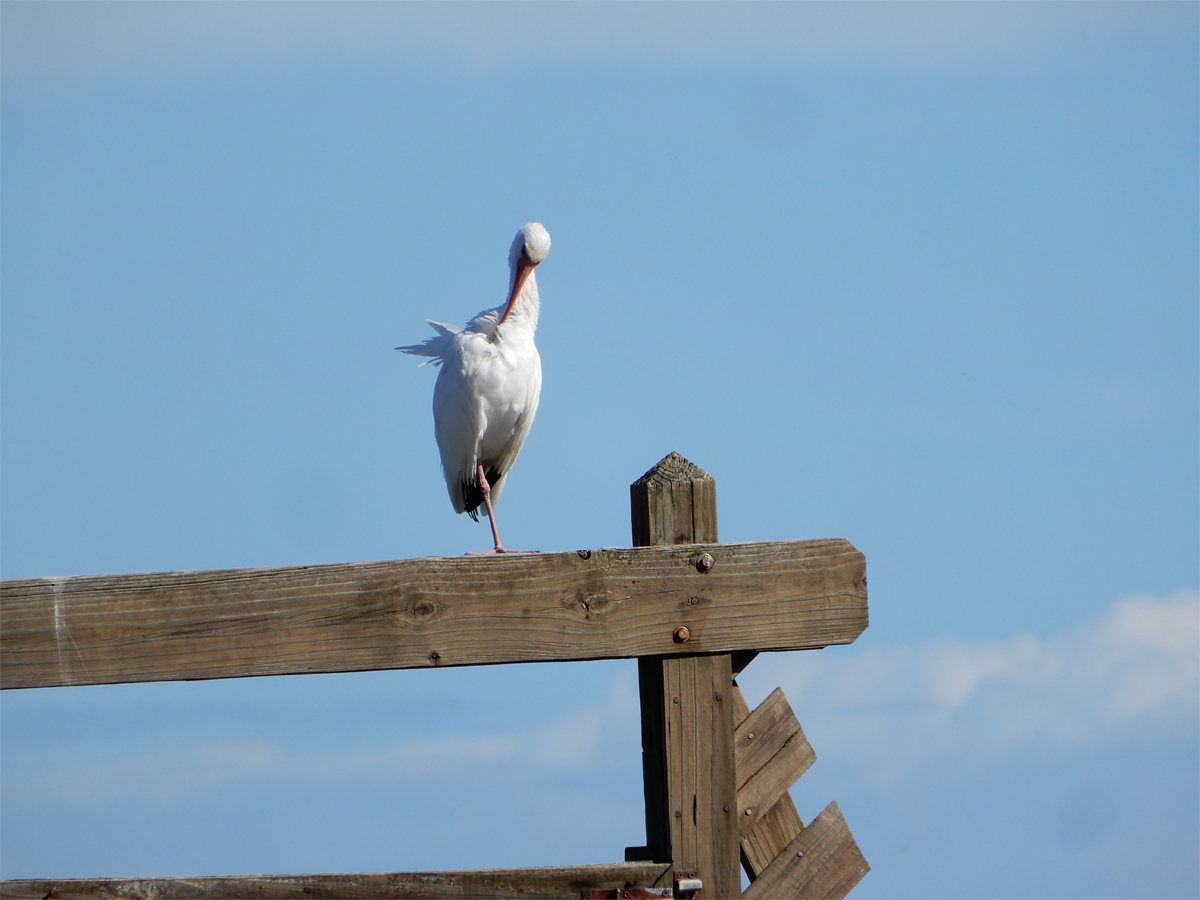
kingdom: Animalia
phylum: Chordata
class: Aves
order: Pelecaniformes
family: Threskiornithidae
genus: Eudocimus
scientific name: Eudocimus albus
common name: White ibis
